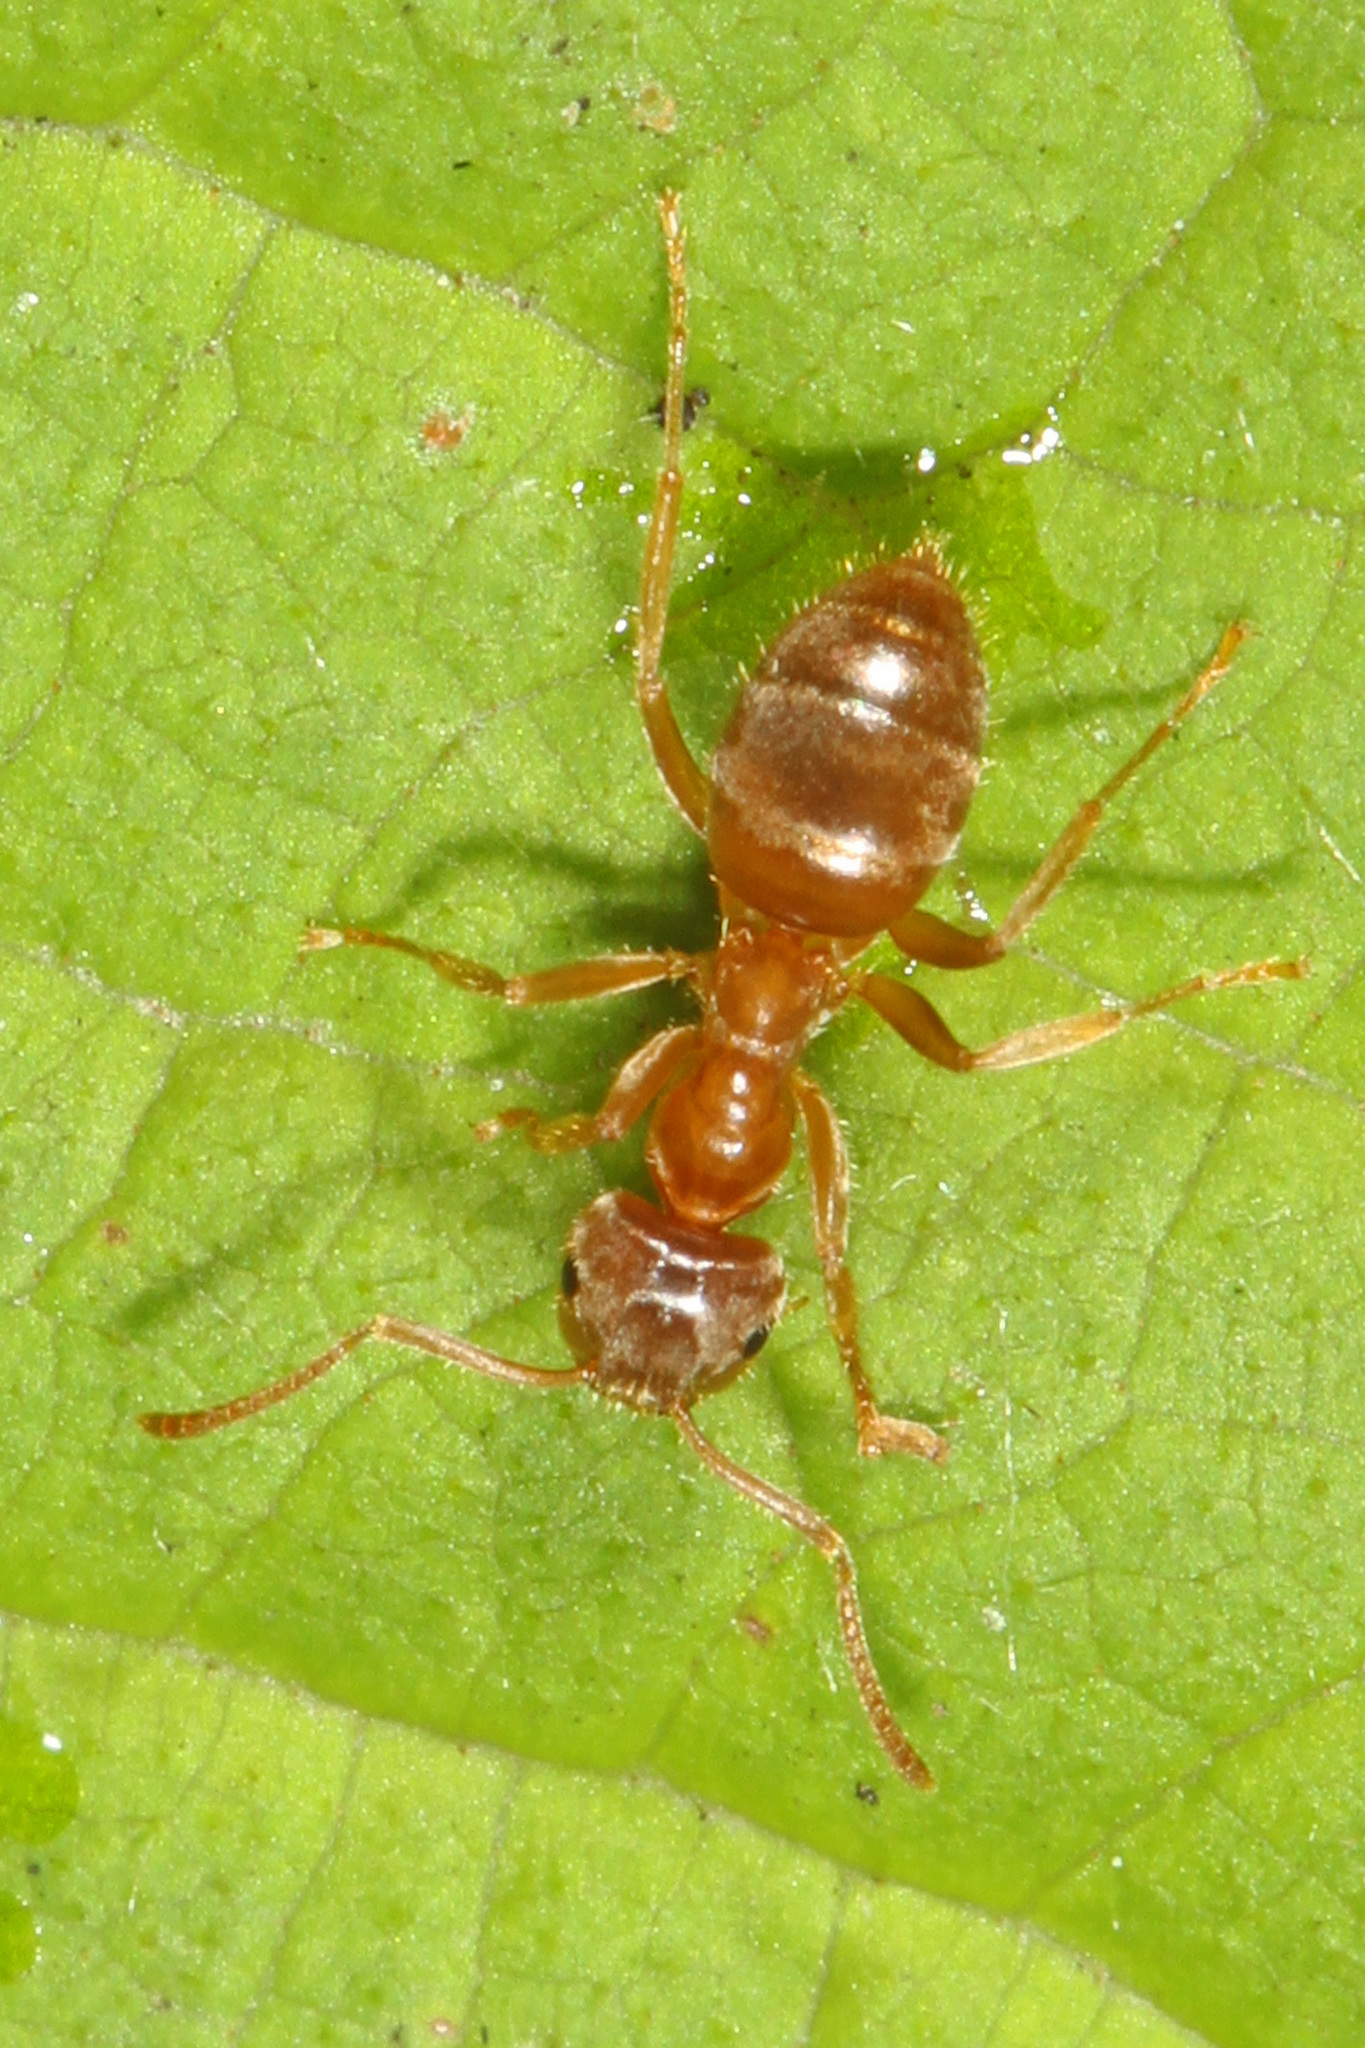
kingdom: Animalia
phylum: Arthropoda
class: Insecta
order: Hymenoptera
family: Formicidae
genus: Lasius
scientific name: Lasius neoniger
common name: Turfgrass ant
